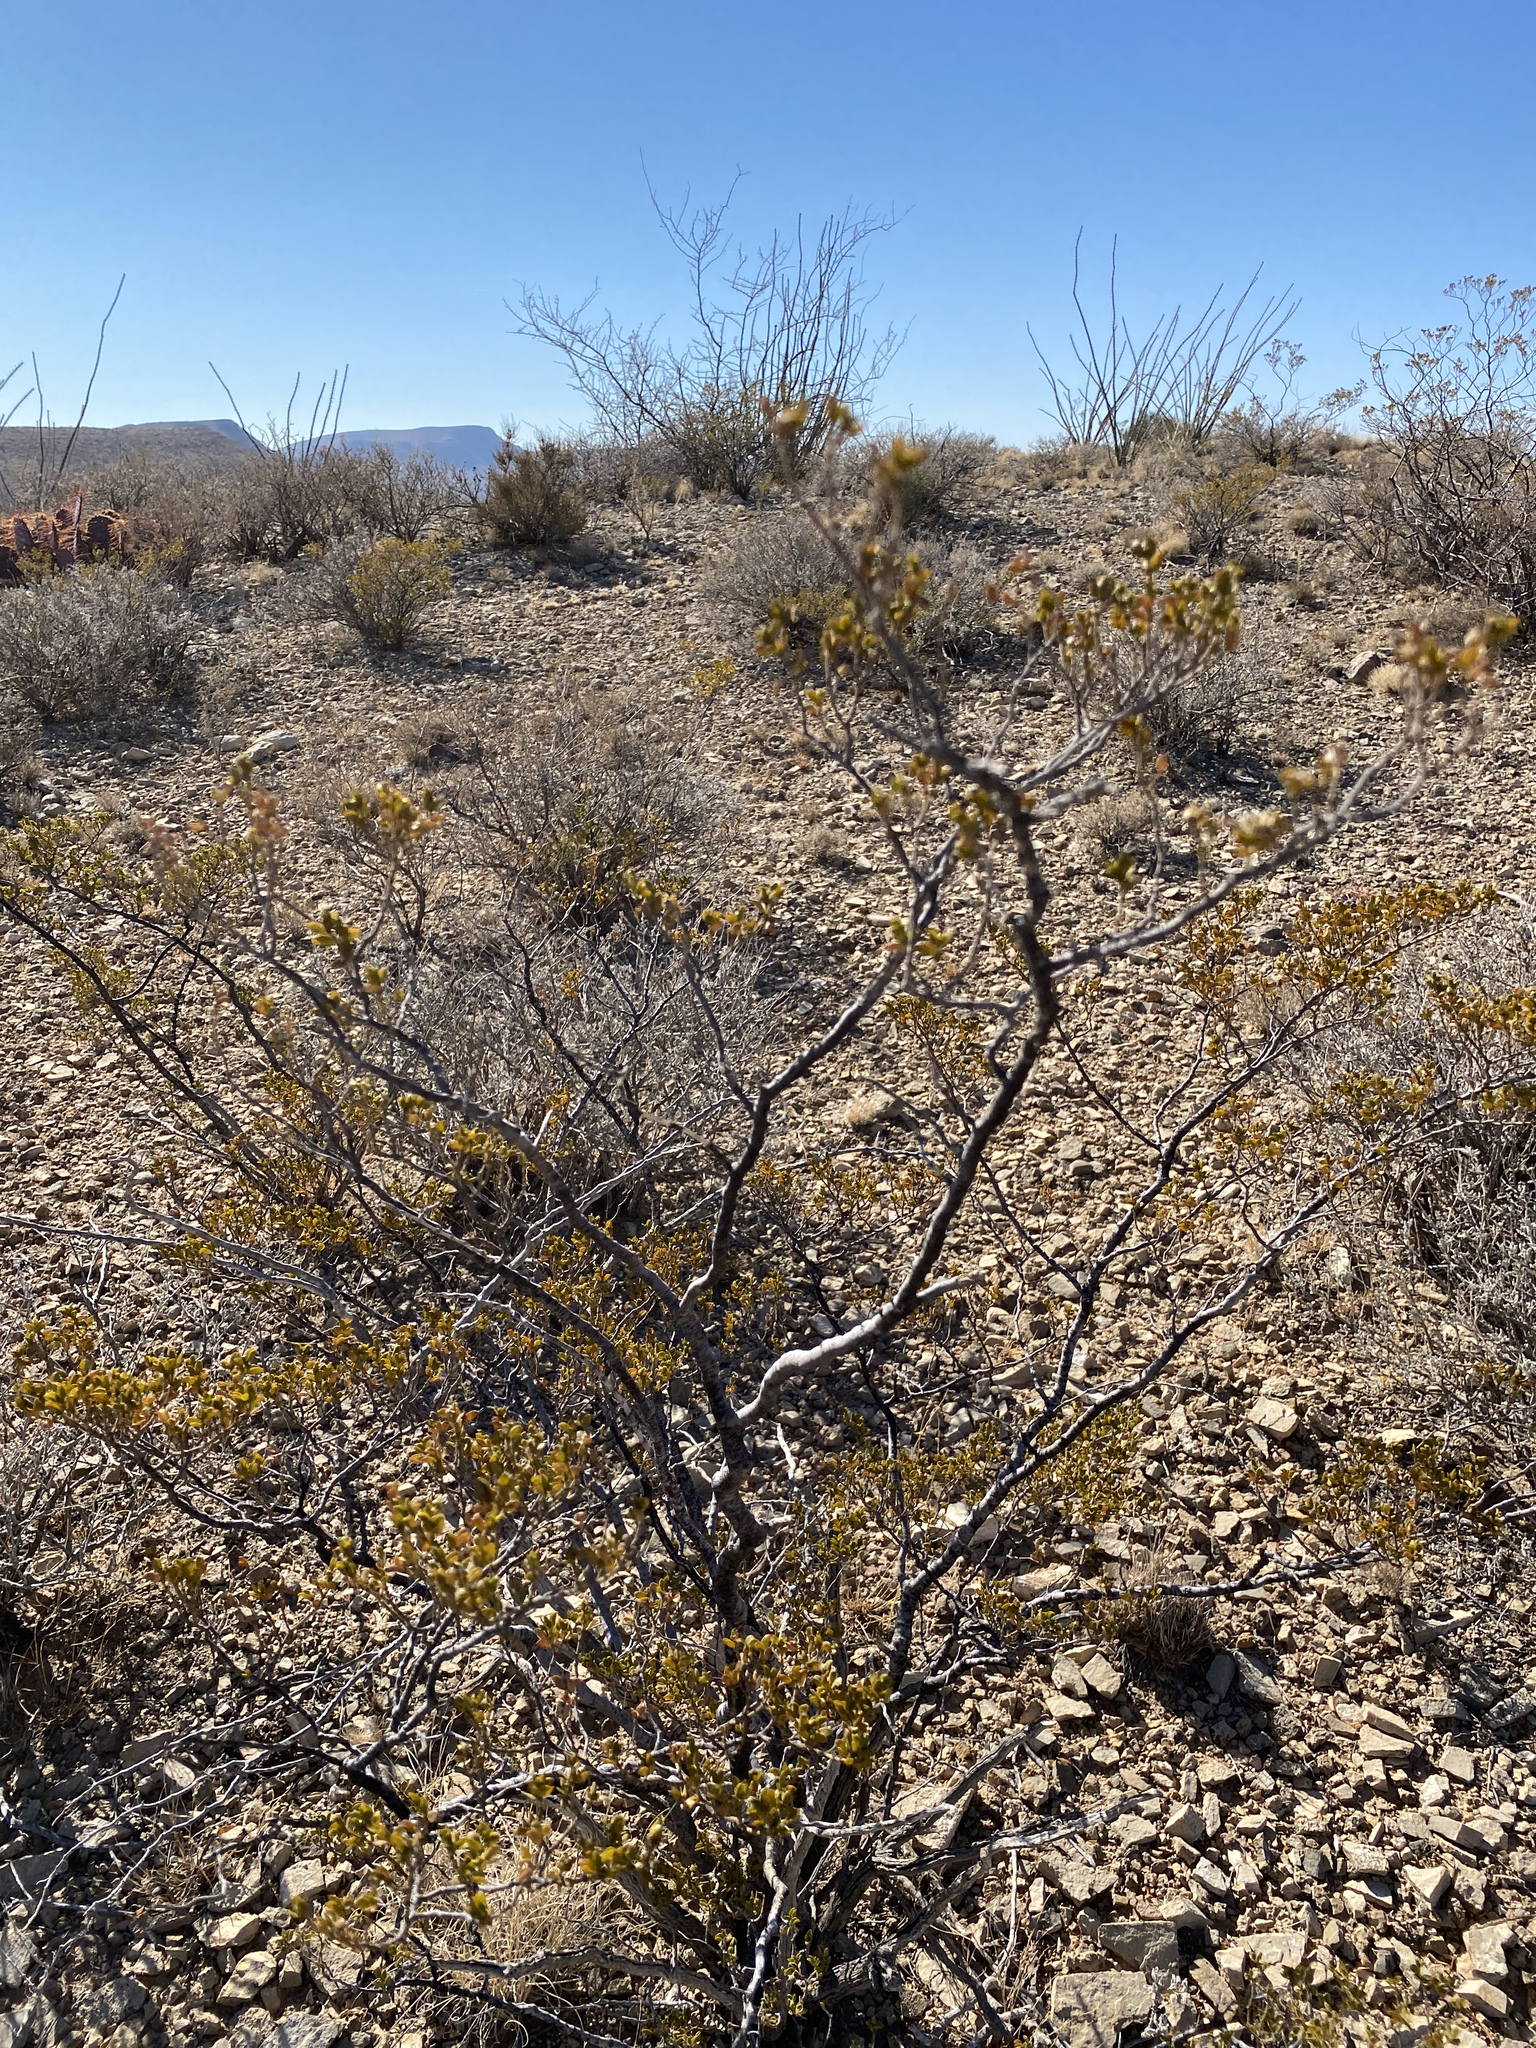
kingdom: Plantae
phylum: Tracheophyta
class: Magnoliopsida
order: Zygophyllales
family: Zygophyllaceae
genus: Larrea
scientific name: Larrea tridentata
